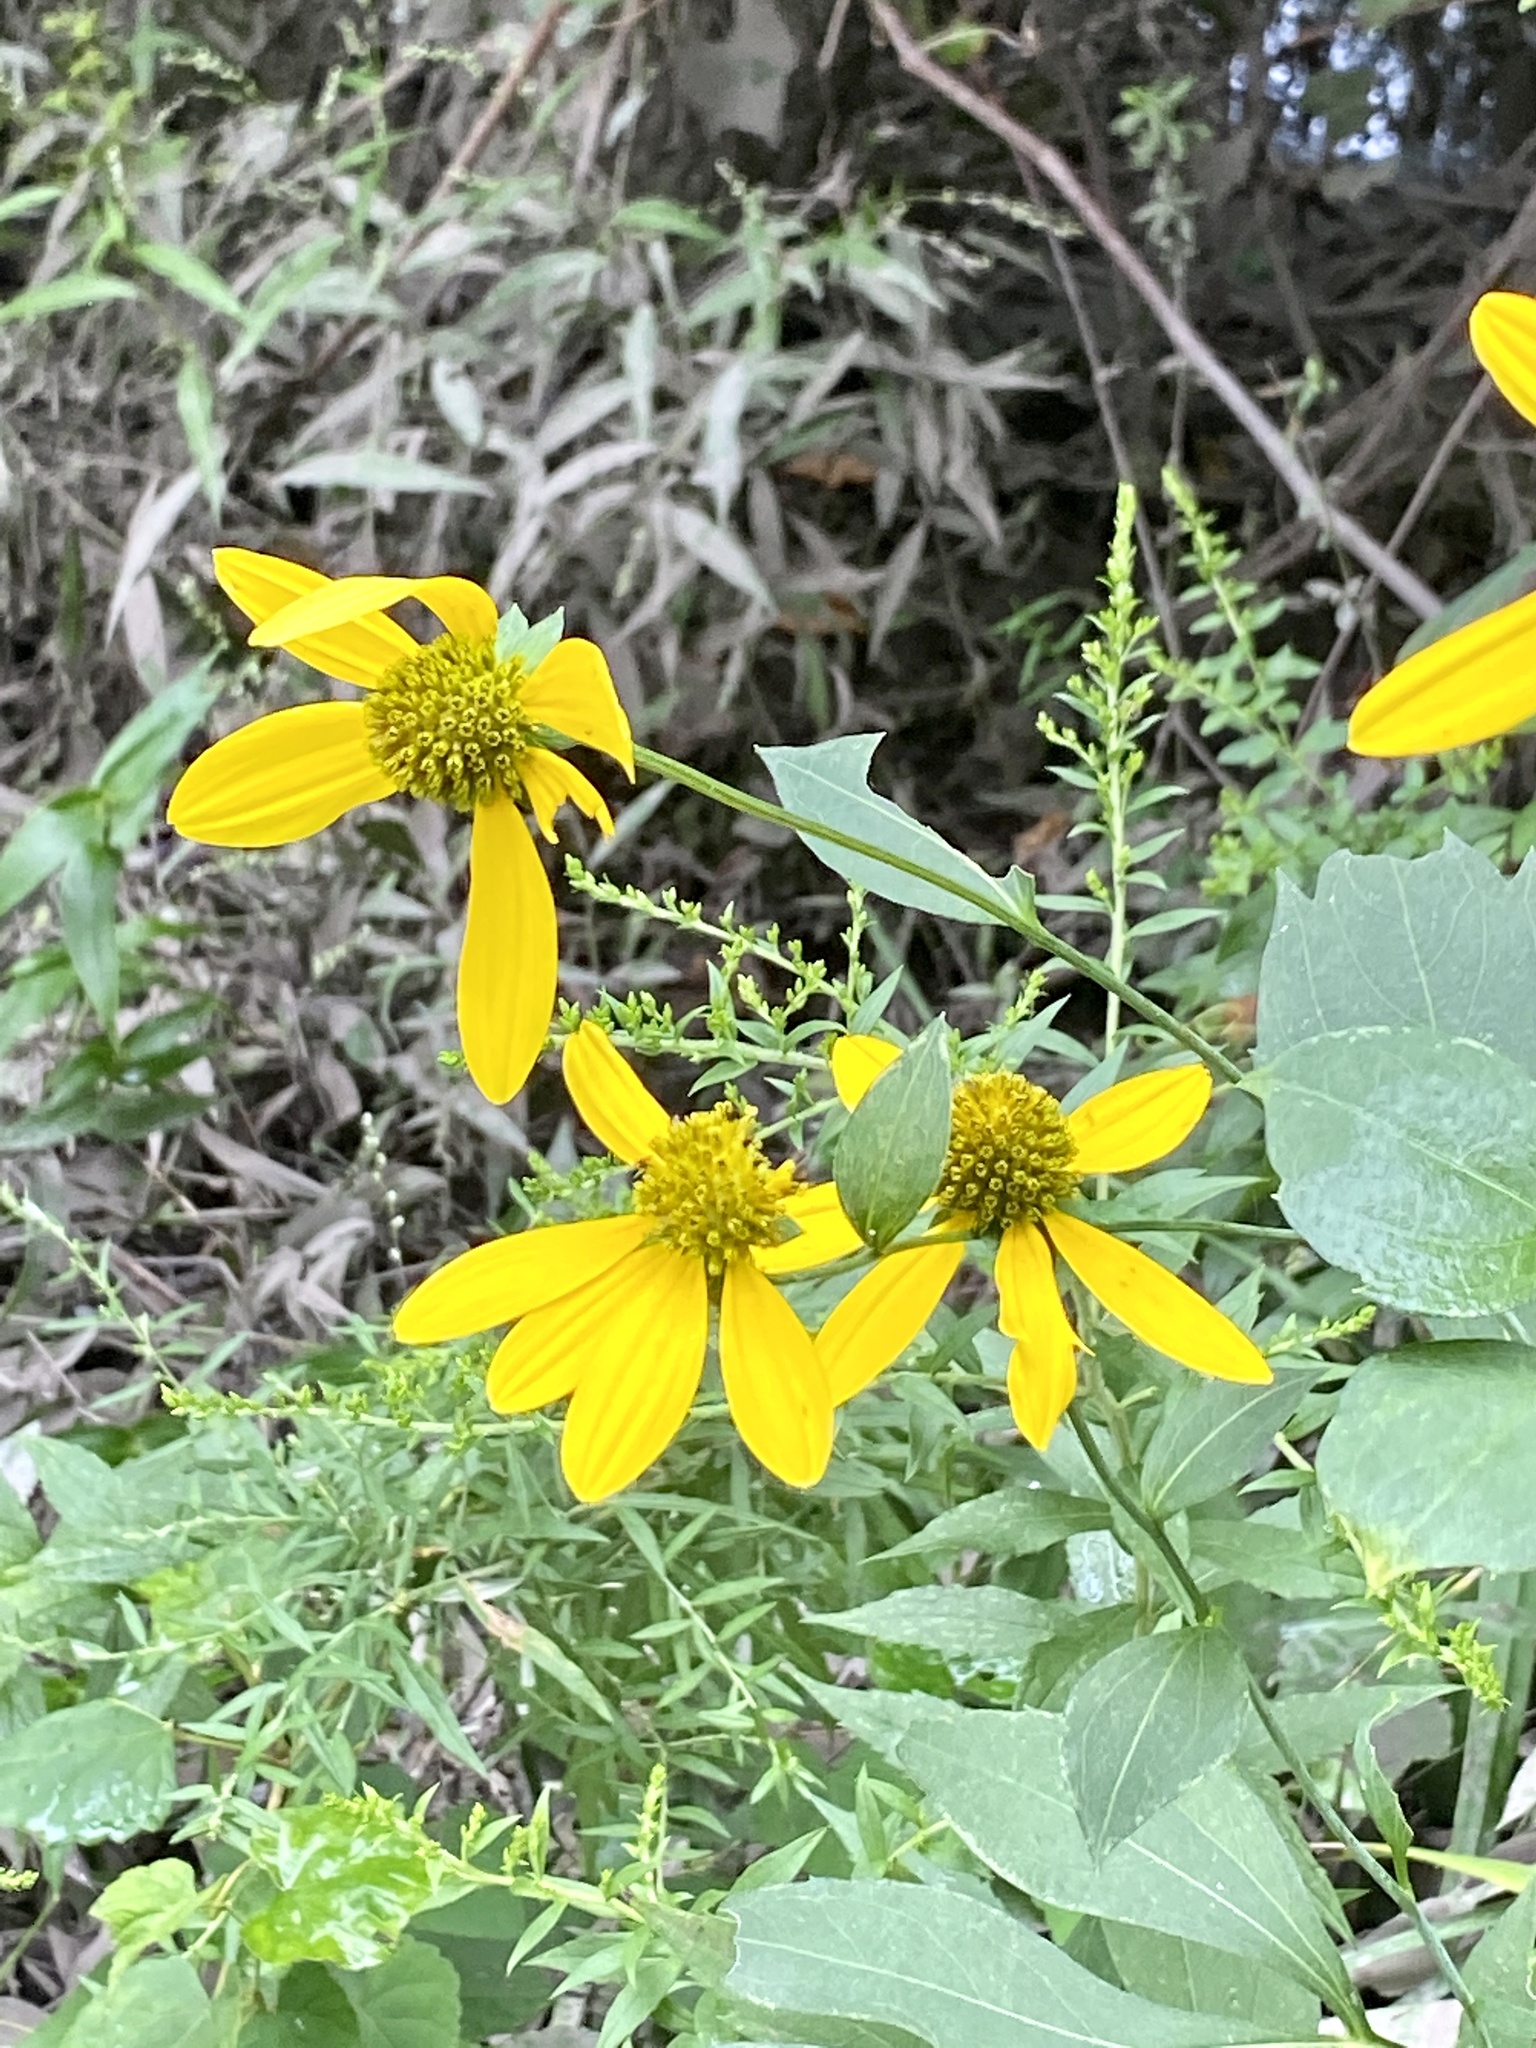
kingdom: Plantae
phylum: Tracheophyta
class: Magnoliopsida
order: Asterales
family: Asteraceae
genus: Rudbeckia
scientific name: Rudbeckia laciniata
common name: Coneflower
